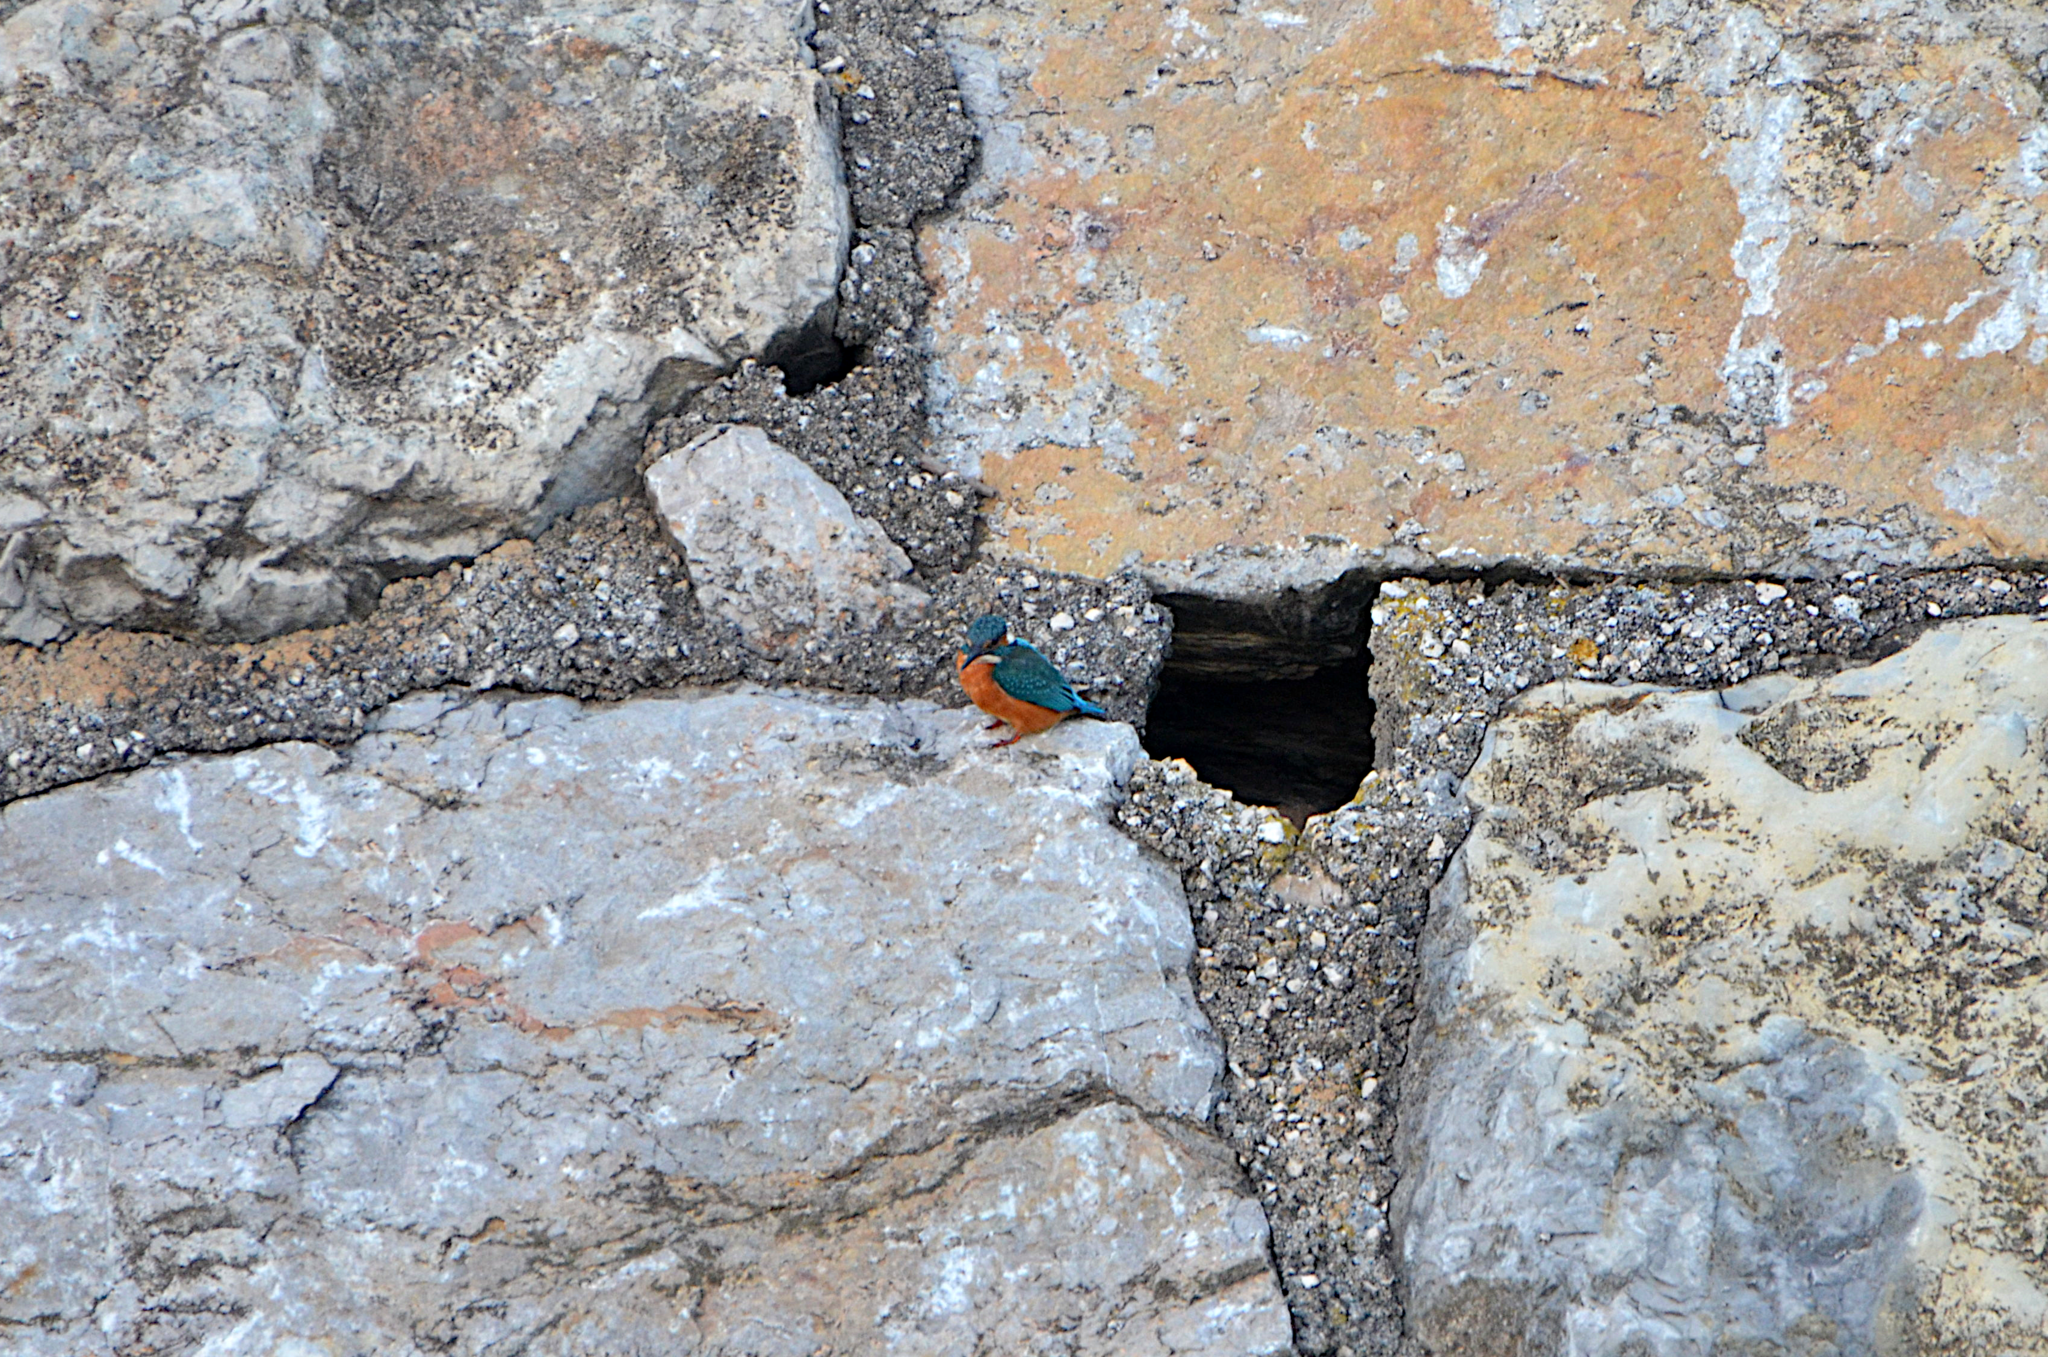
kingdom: Animalia
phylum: Chordata
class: Aves
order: Coraciiformes
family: Alcedinidae
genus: Alcedo
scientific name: Alcedo atthis
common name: Common kingfisher
